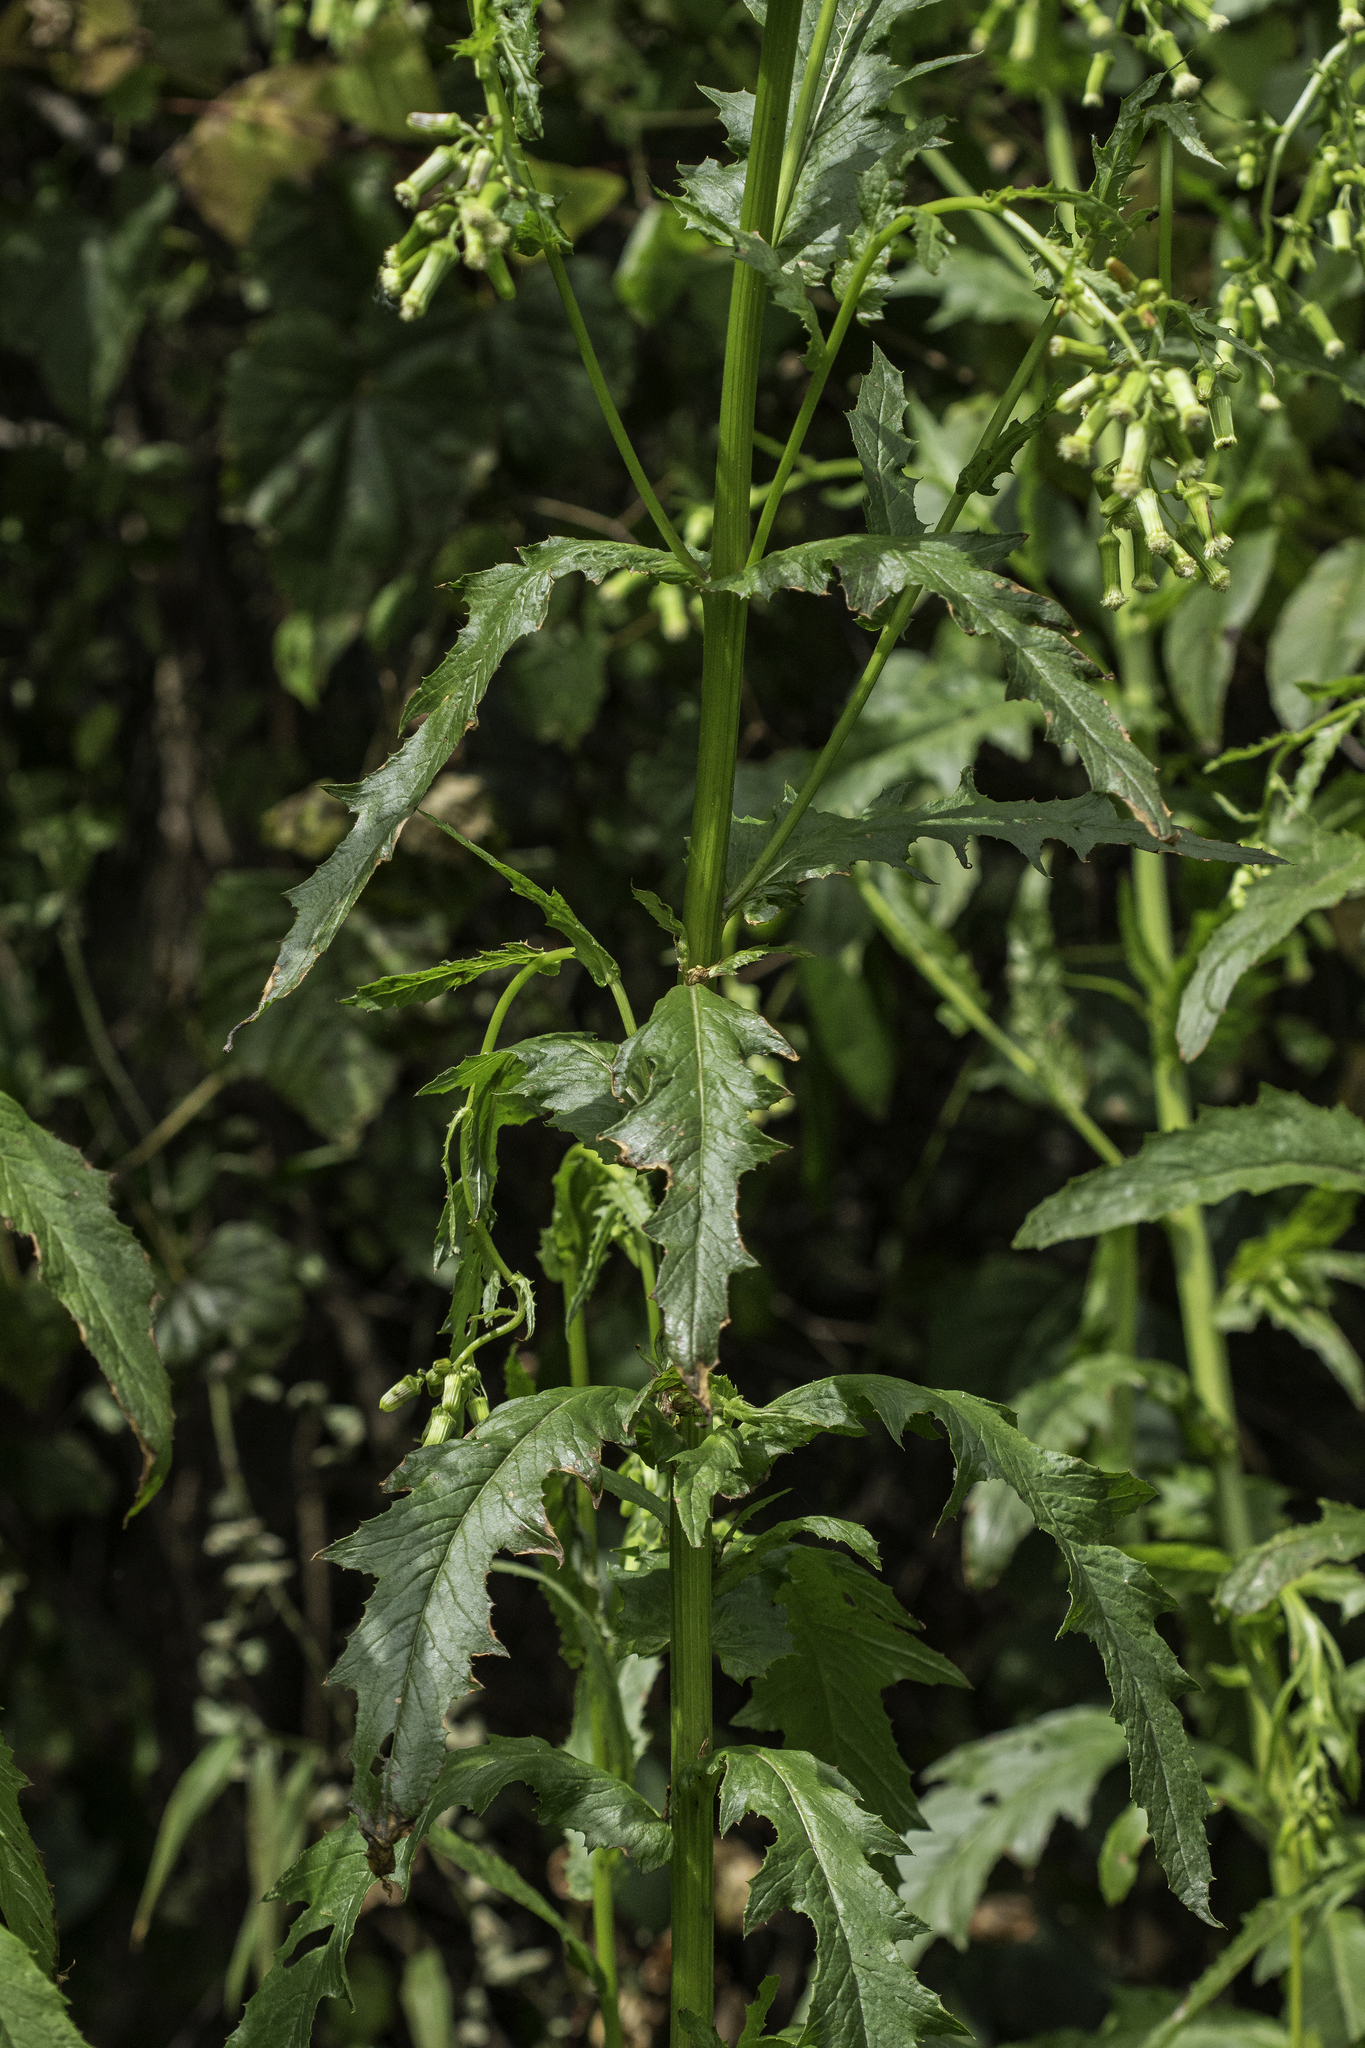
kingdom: Plantae
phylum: Tracheophyta
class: Magnoliopsida
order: Asterales
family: Asteraceae
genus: Erechtites
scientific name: Erechtites hieraciifolius
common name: American burnweed
